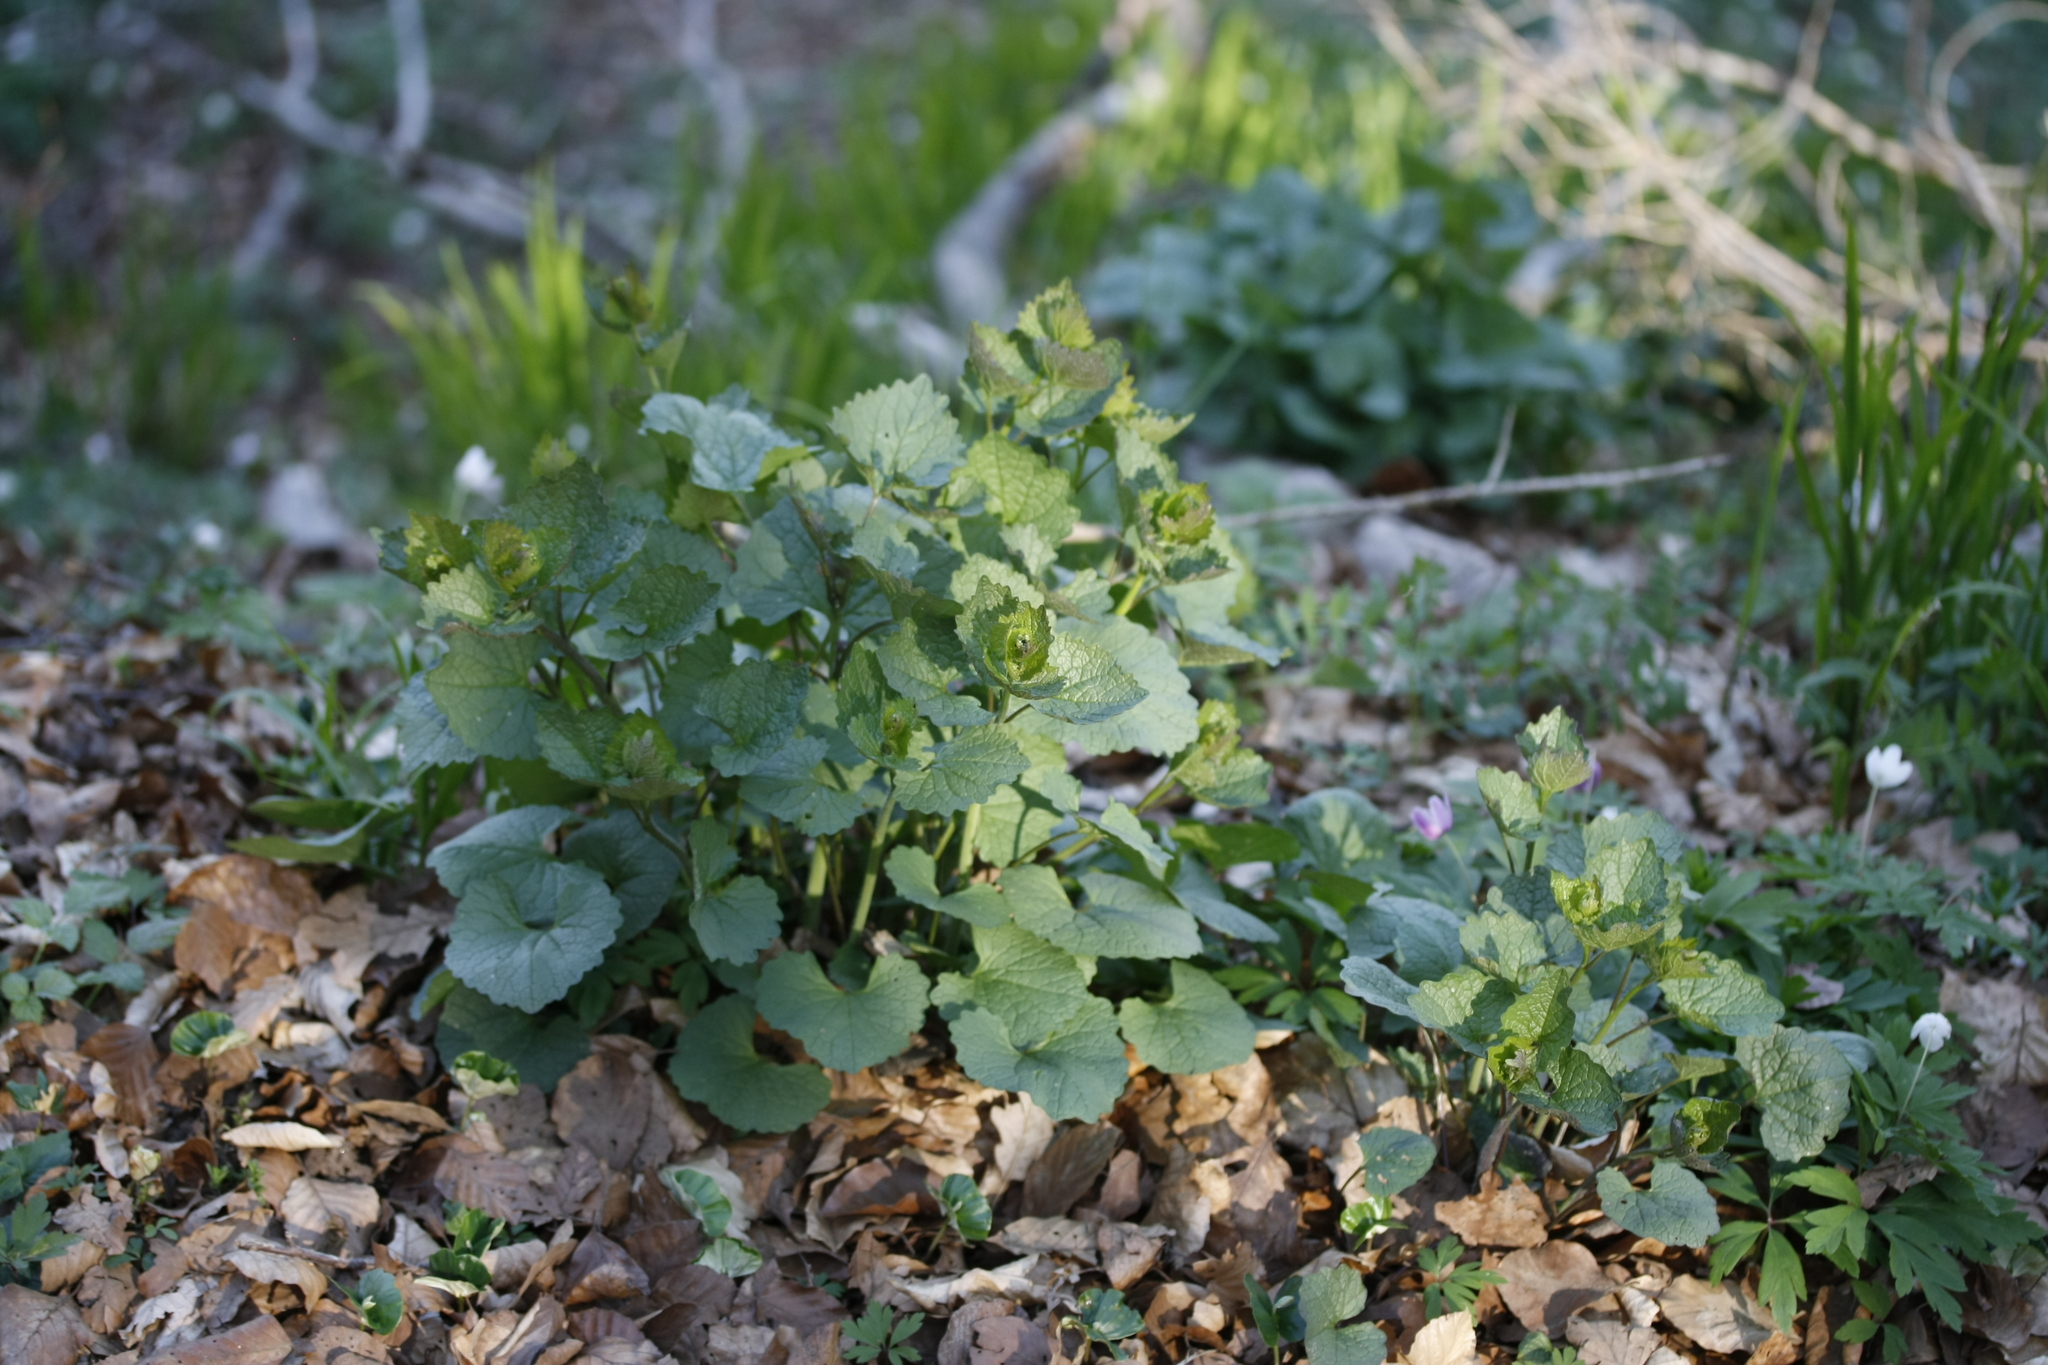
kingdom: Plantae
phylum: Tracheophyta
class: Magnoliopsida
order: Brassicales
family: Brassicaceae
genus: Alliaria
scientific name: Alliaria petiolata
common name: Garlic mustard
